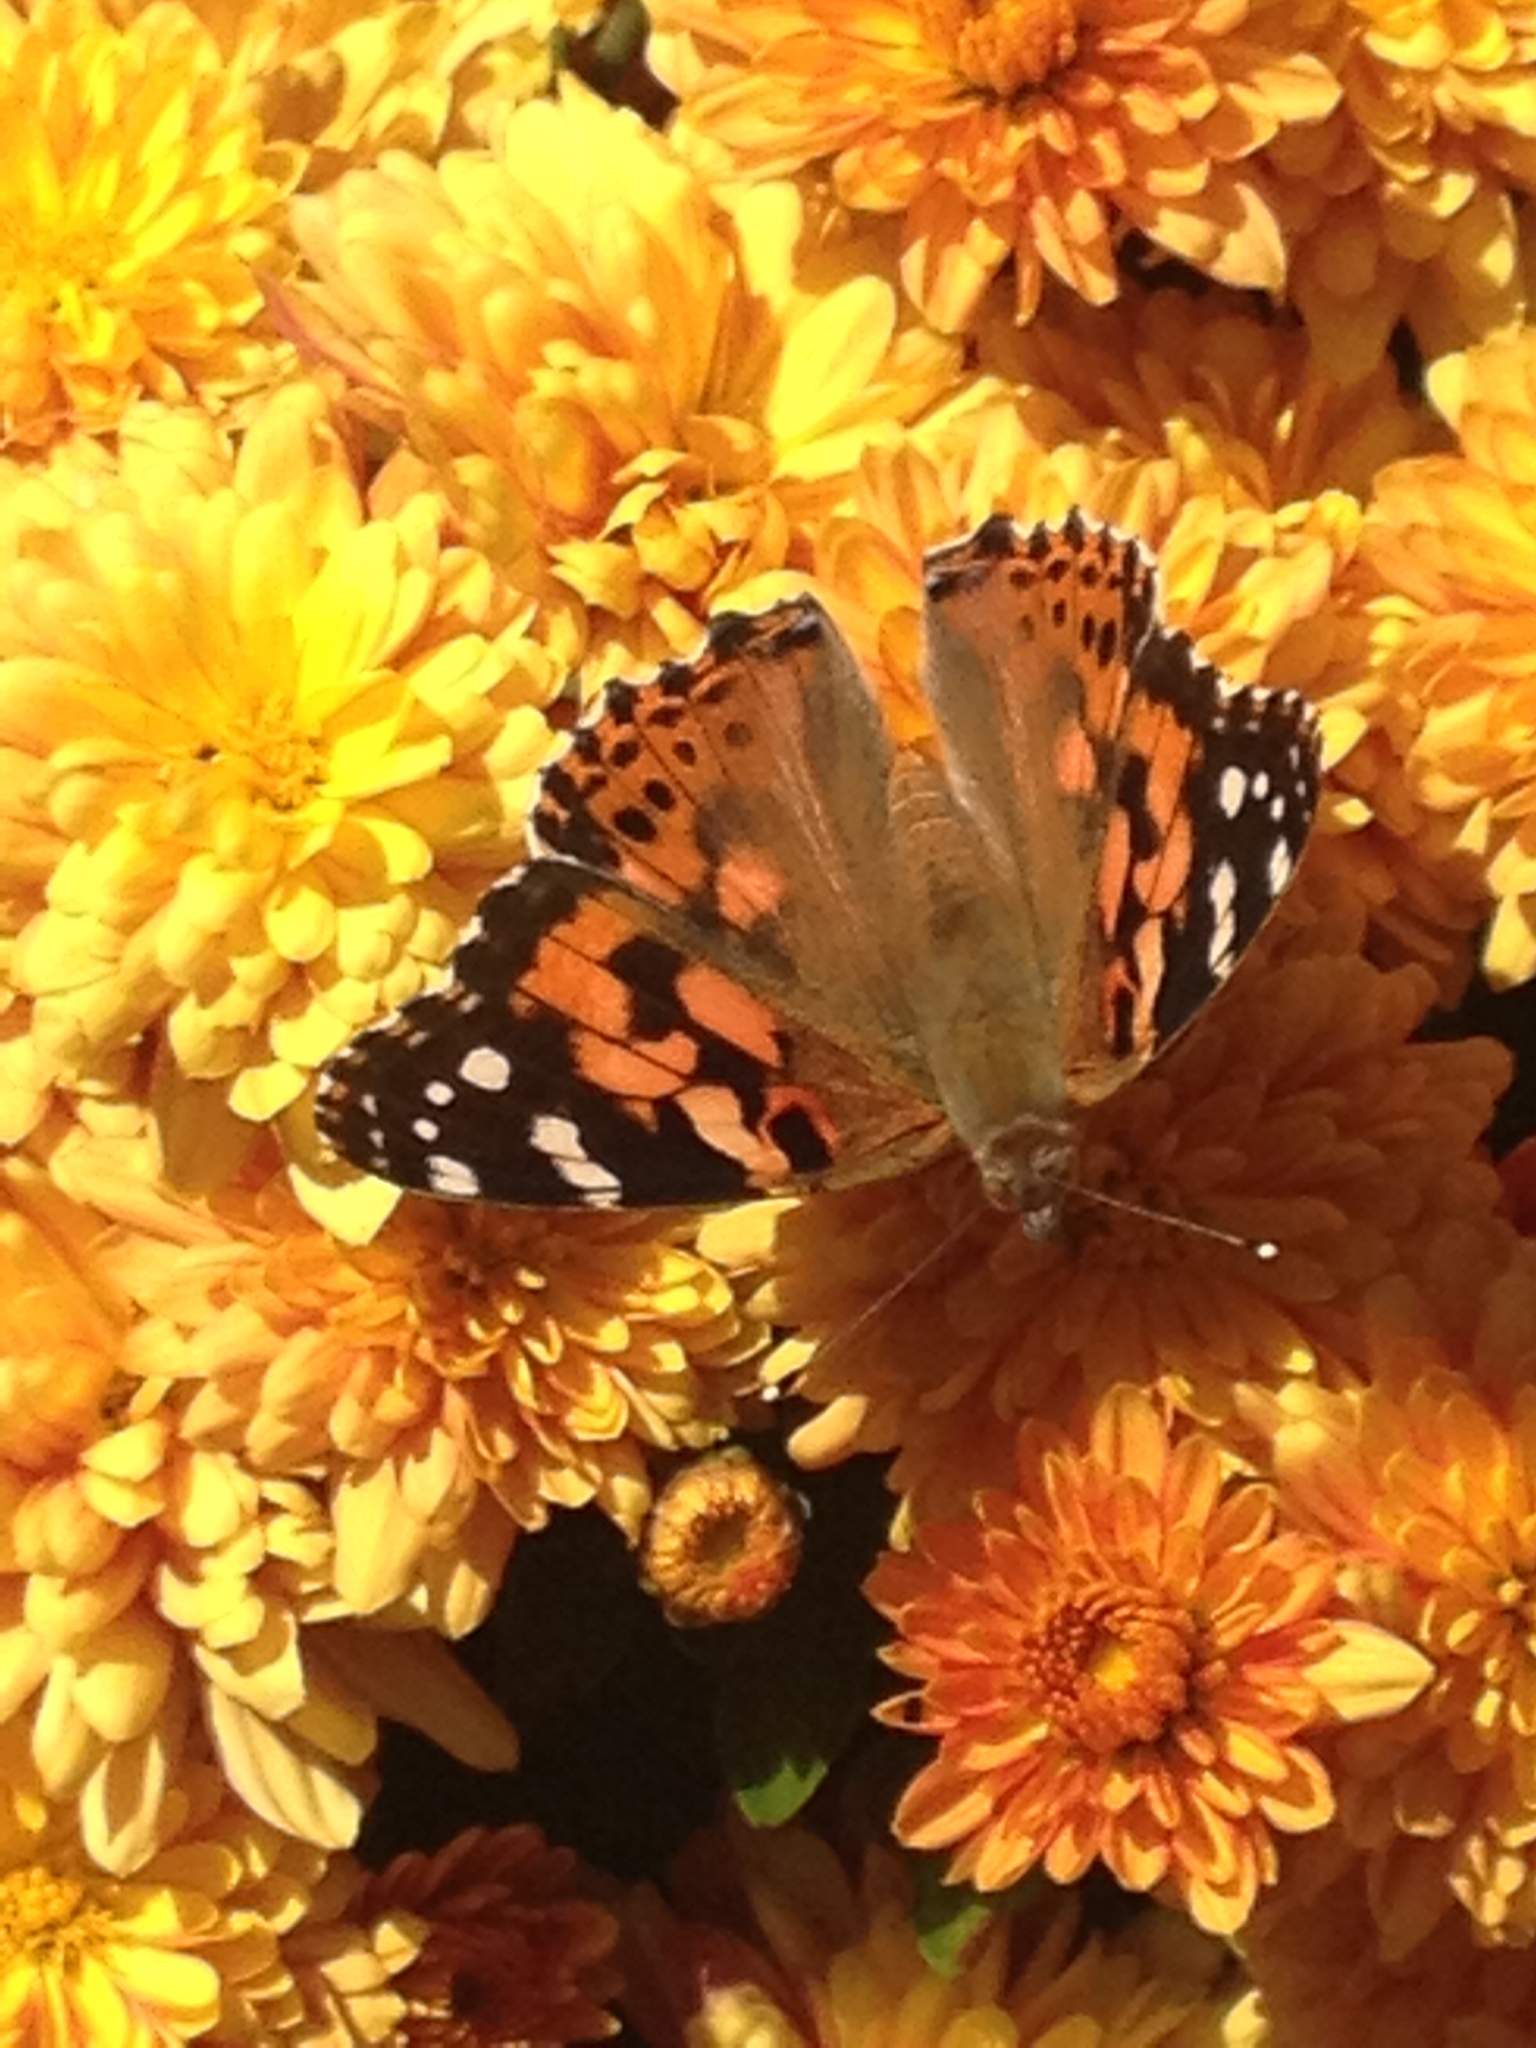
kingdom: Animalia
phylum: Arthropoda
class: Insecta
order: Lepidoptera
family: Nymphalidae
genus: Vanessa
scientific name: Vanessa cardui
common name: Painted lady
